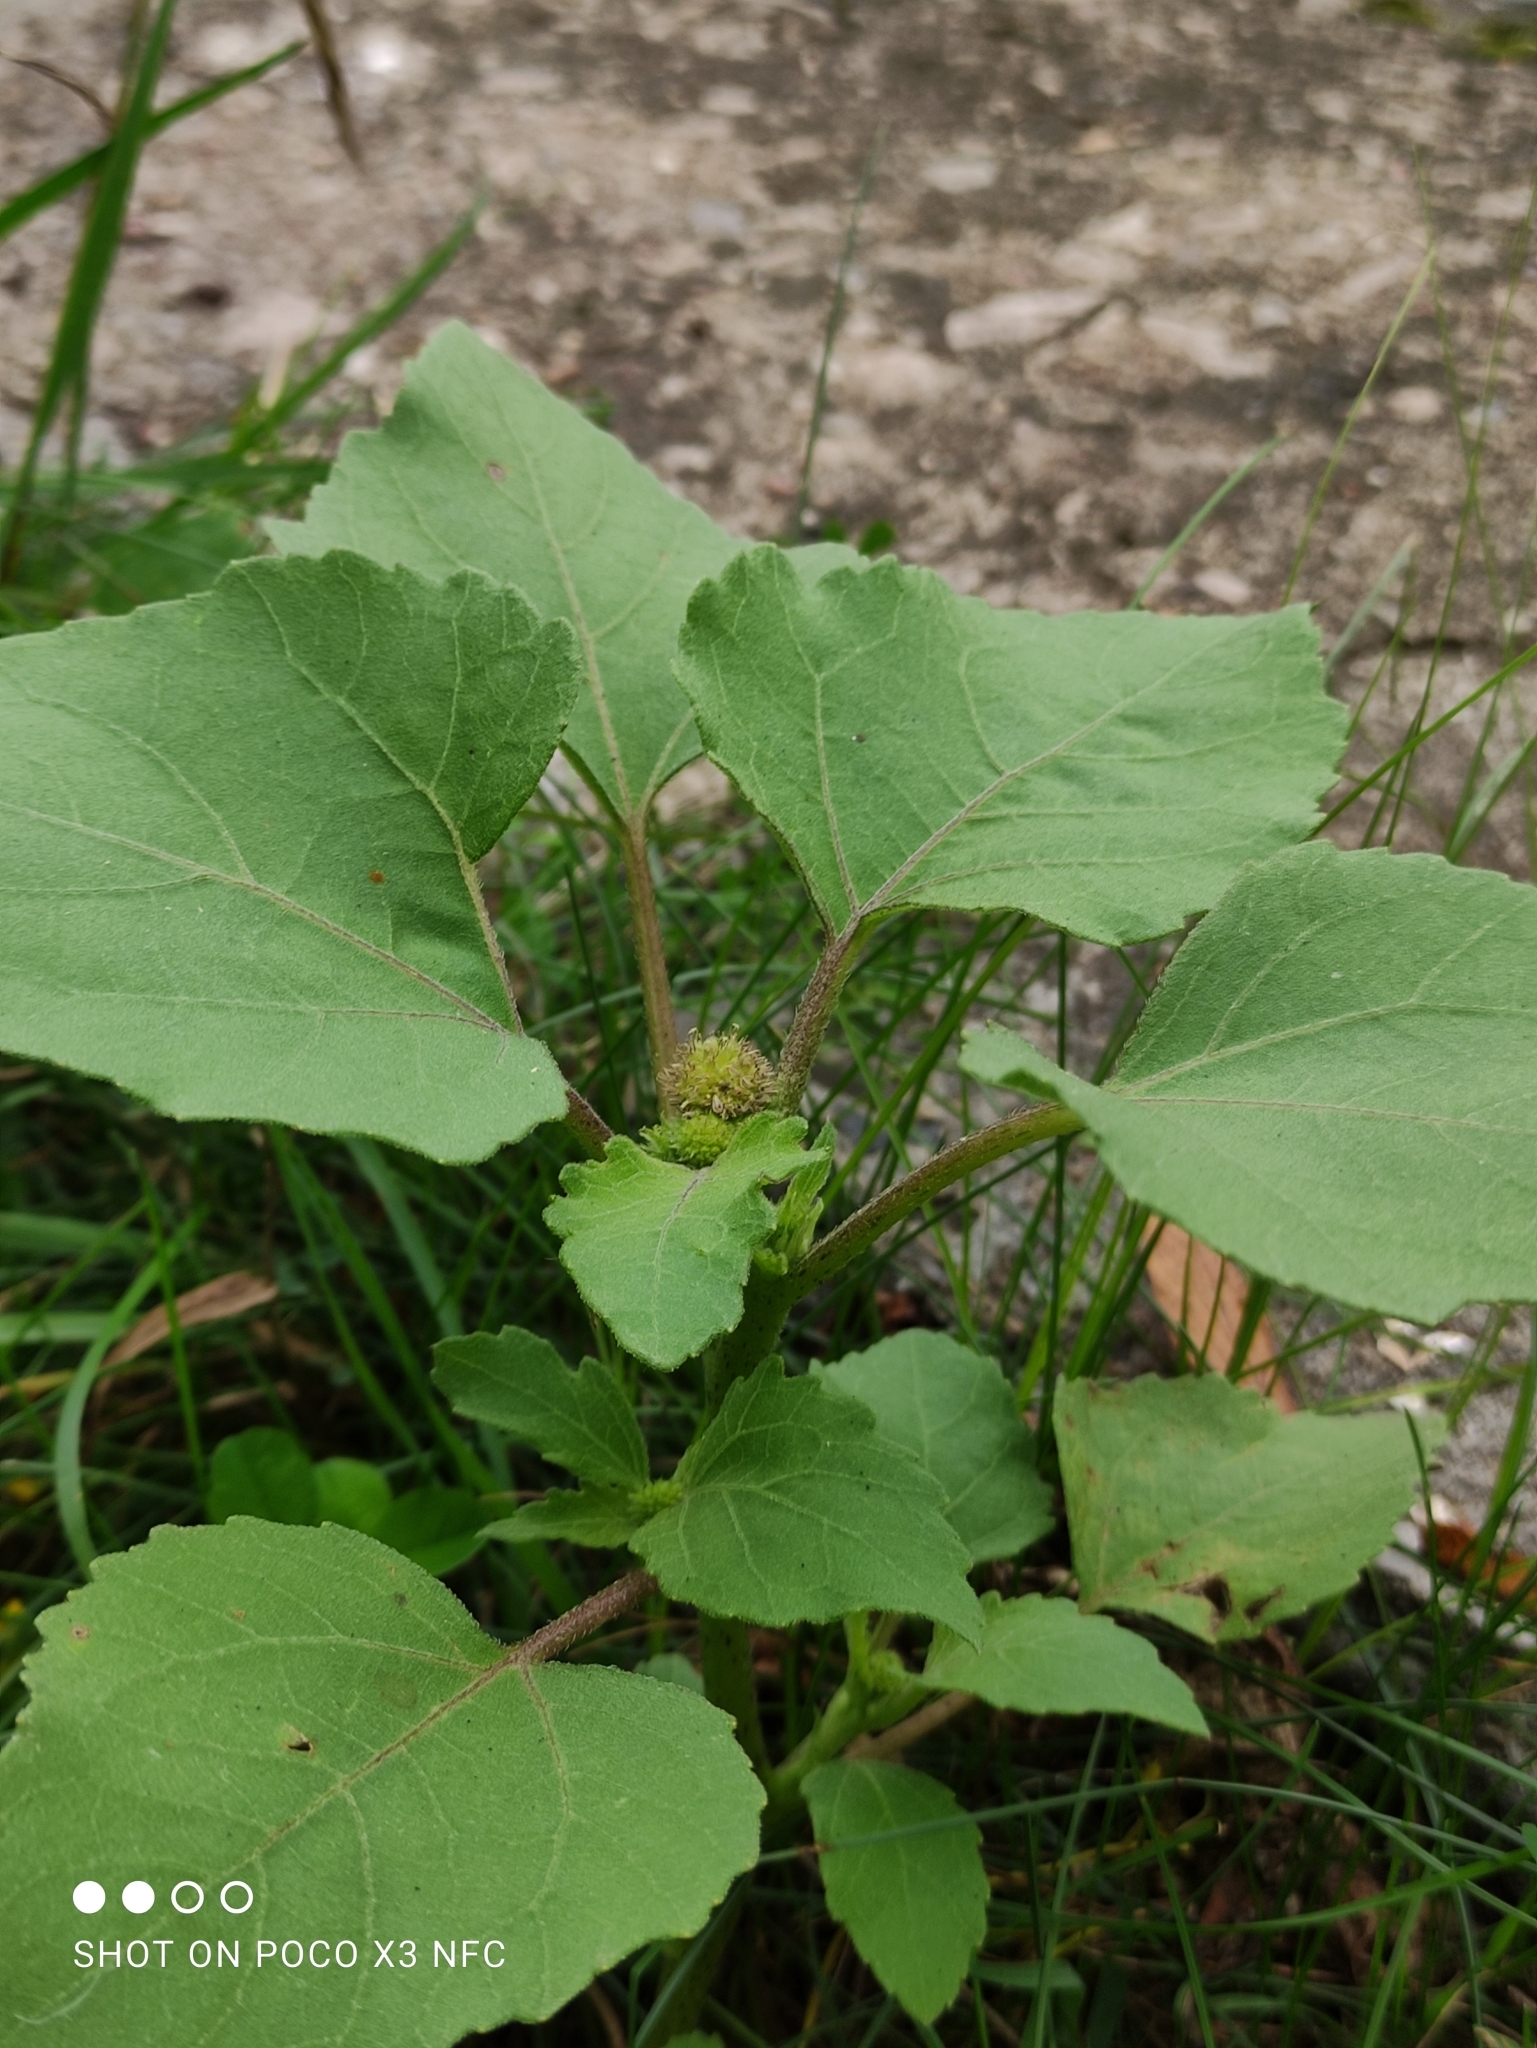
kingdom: Plantae
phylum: Tracheophyta
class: Magnoliopsida
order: Asterales
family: Asteraceae
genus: Xanthium
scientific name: Xanthium orientale
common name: Californian burr
